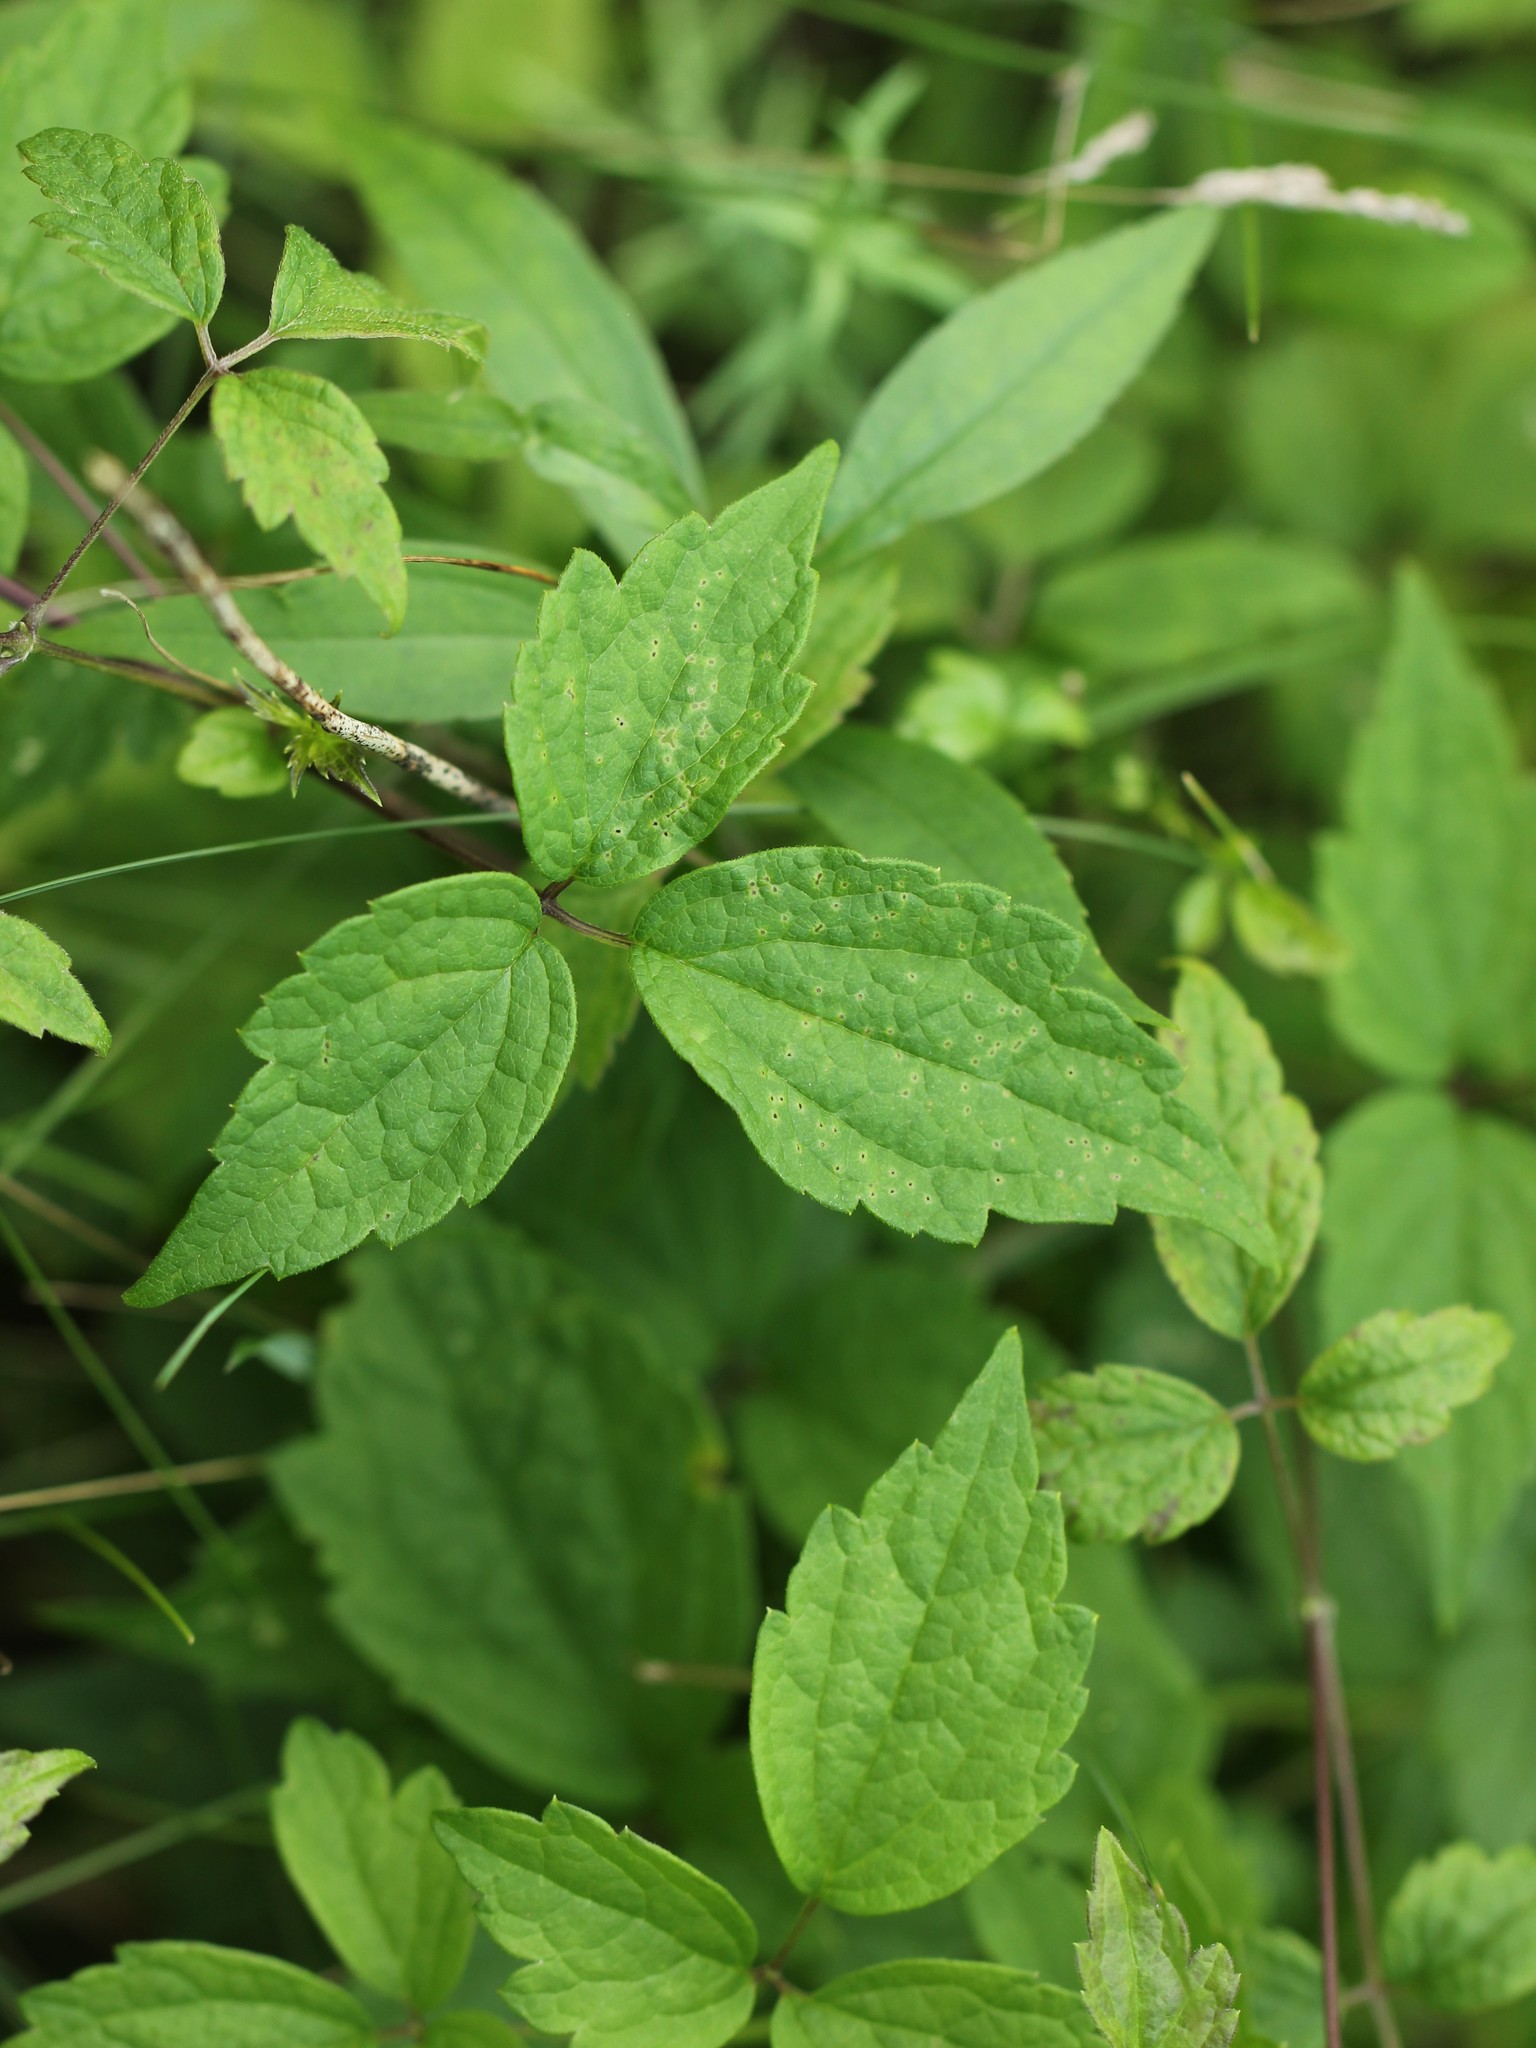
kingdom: Plantae
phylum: Tracheophyta
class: Magnoliopsida
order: Ranunculales
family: Ranunculaceae
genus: Clematis
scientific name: Clematis virginiana
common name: Virgin's-bower
